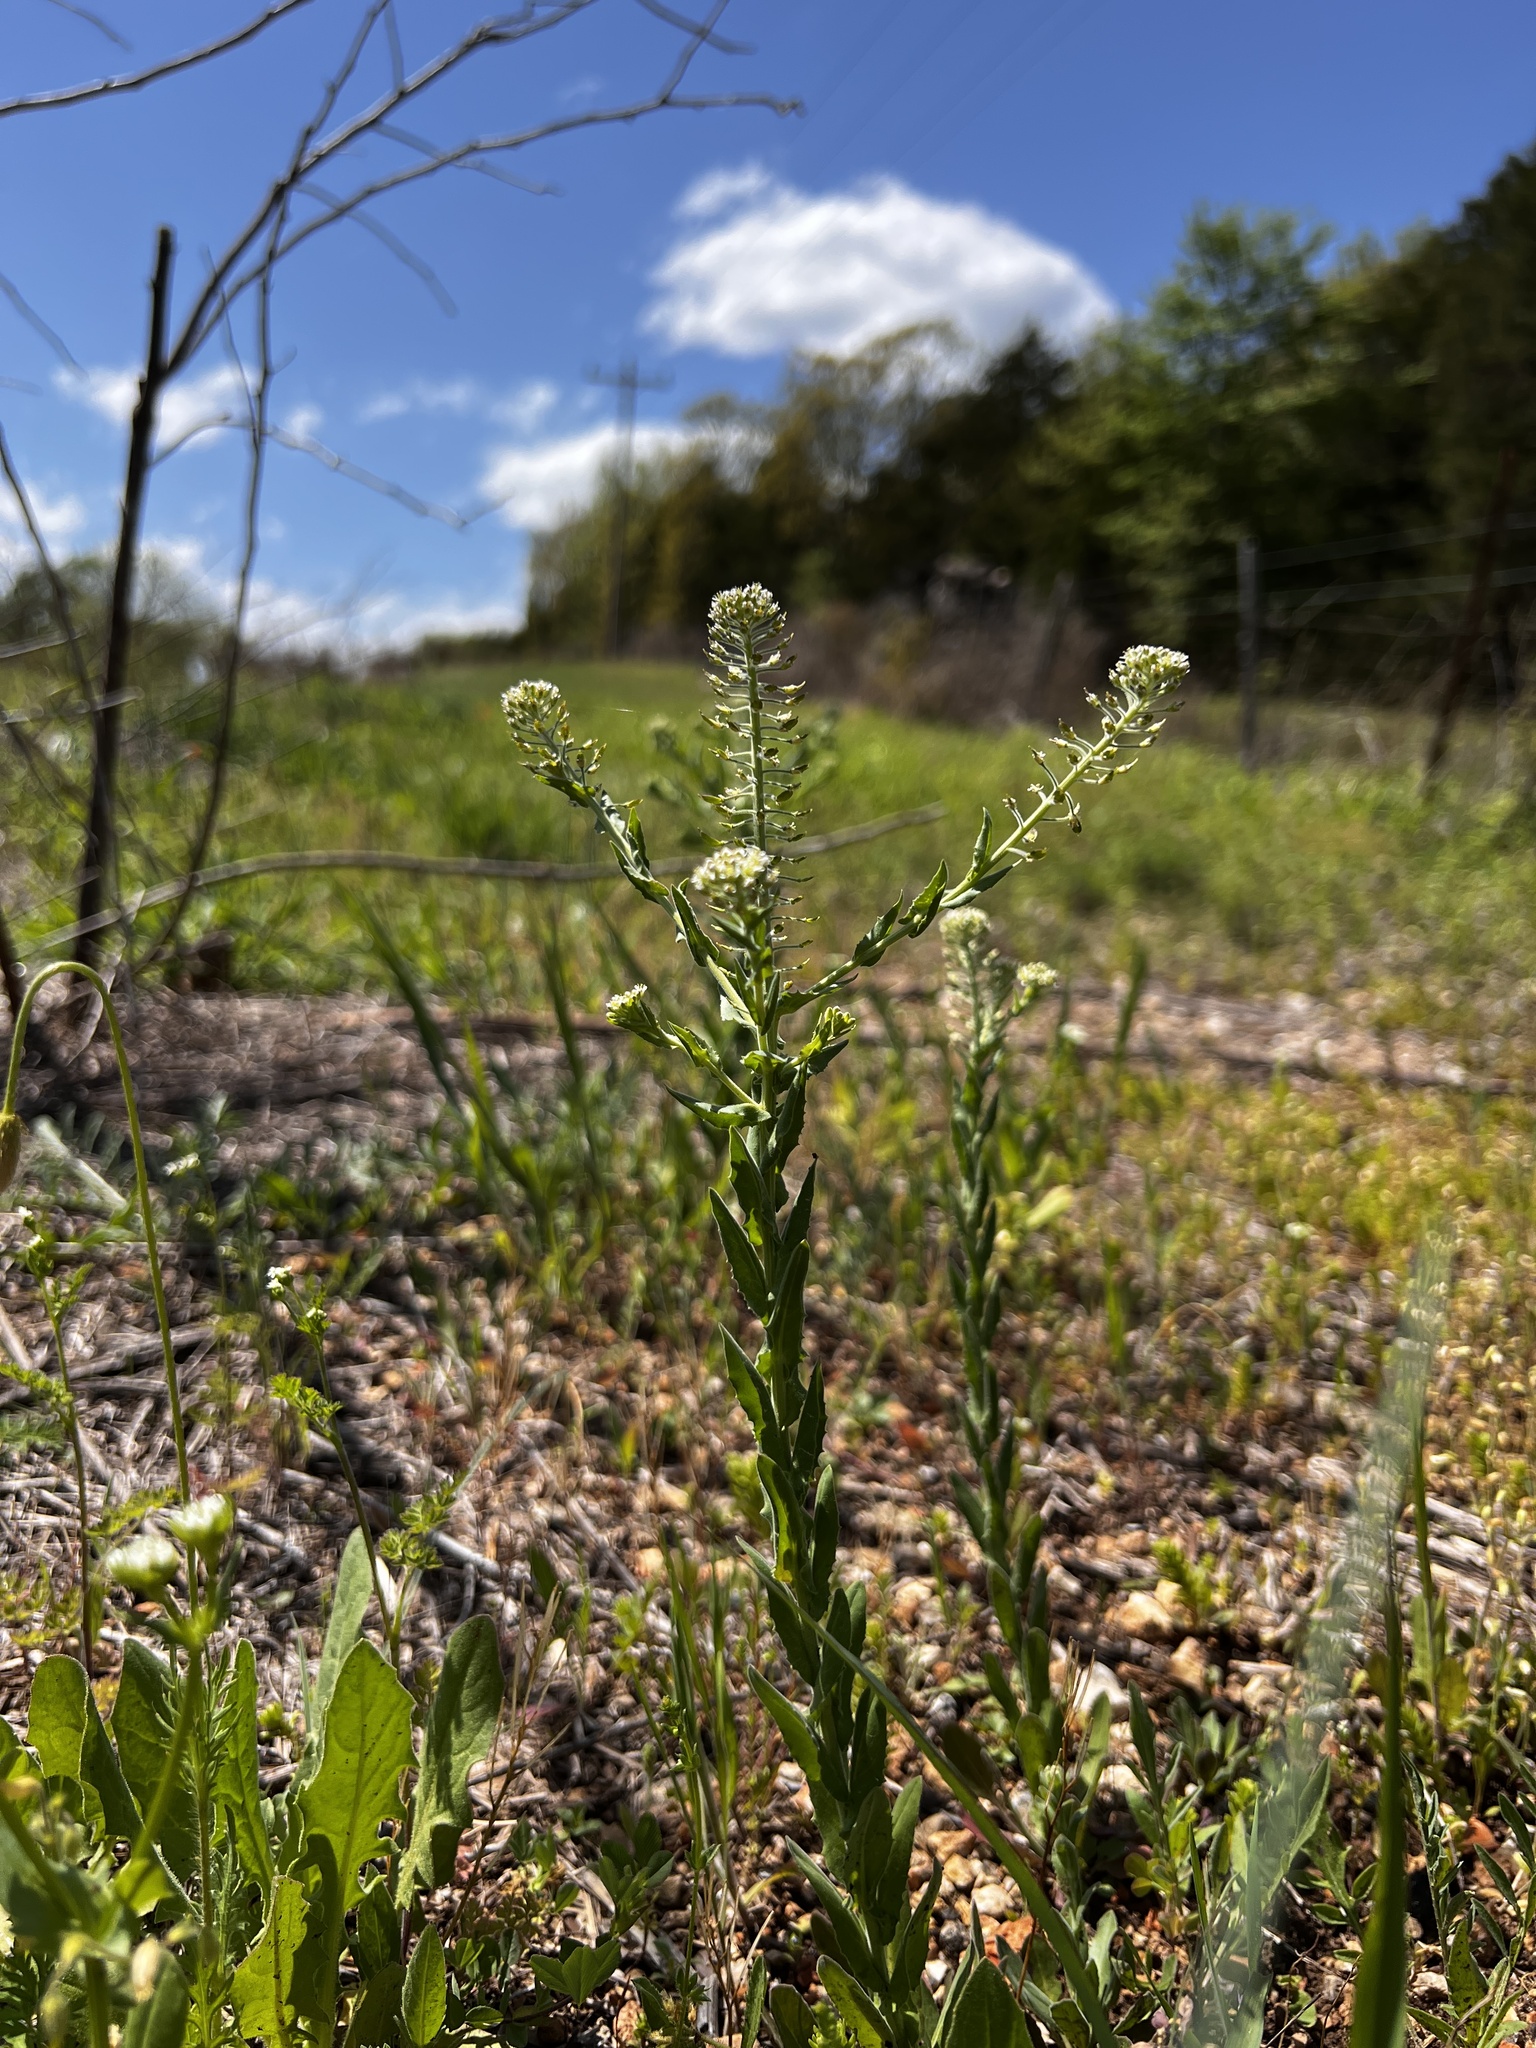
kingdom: Plantae
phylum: Tracheophyta
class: Magnoliopsida
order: Brassicales
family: Brassicaceae
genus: Lepidium
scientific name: Lepidium campestre
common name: Field pepperwort
